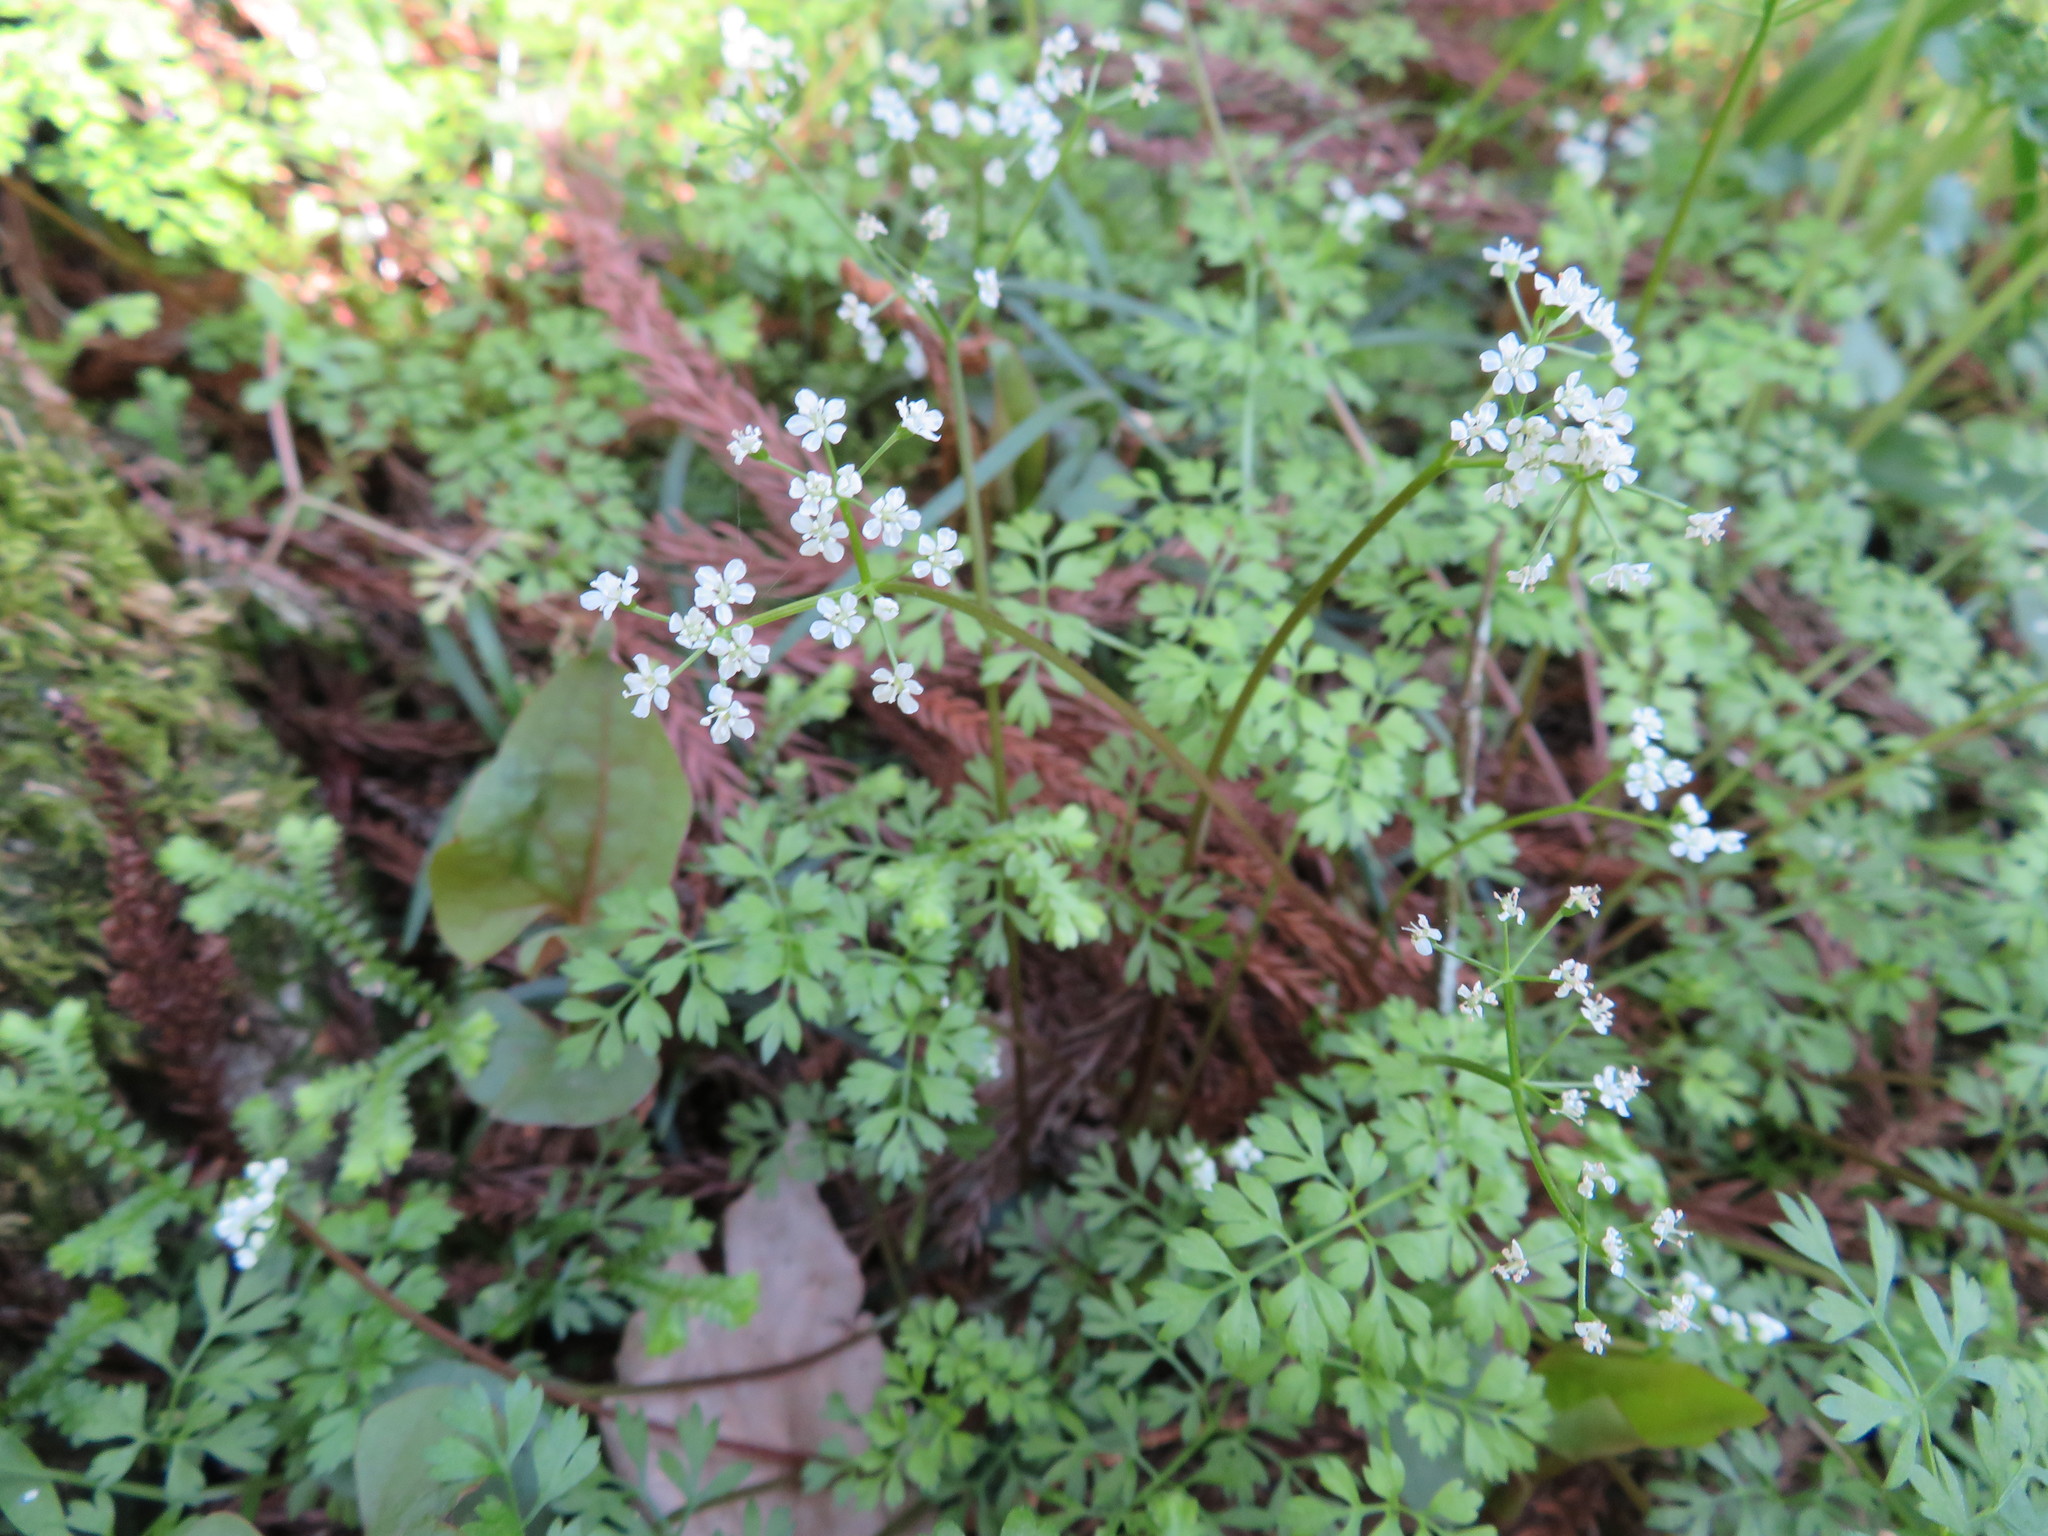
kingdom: Plantae
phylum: Tracheophyta
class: Magnoliopsida
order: Apiales
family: Apiaceae
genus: Aegopodium
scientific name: Aegopodium decumbens
